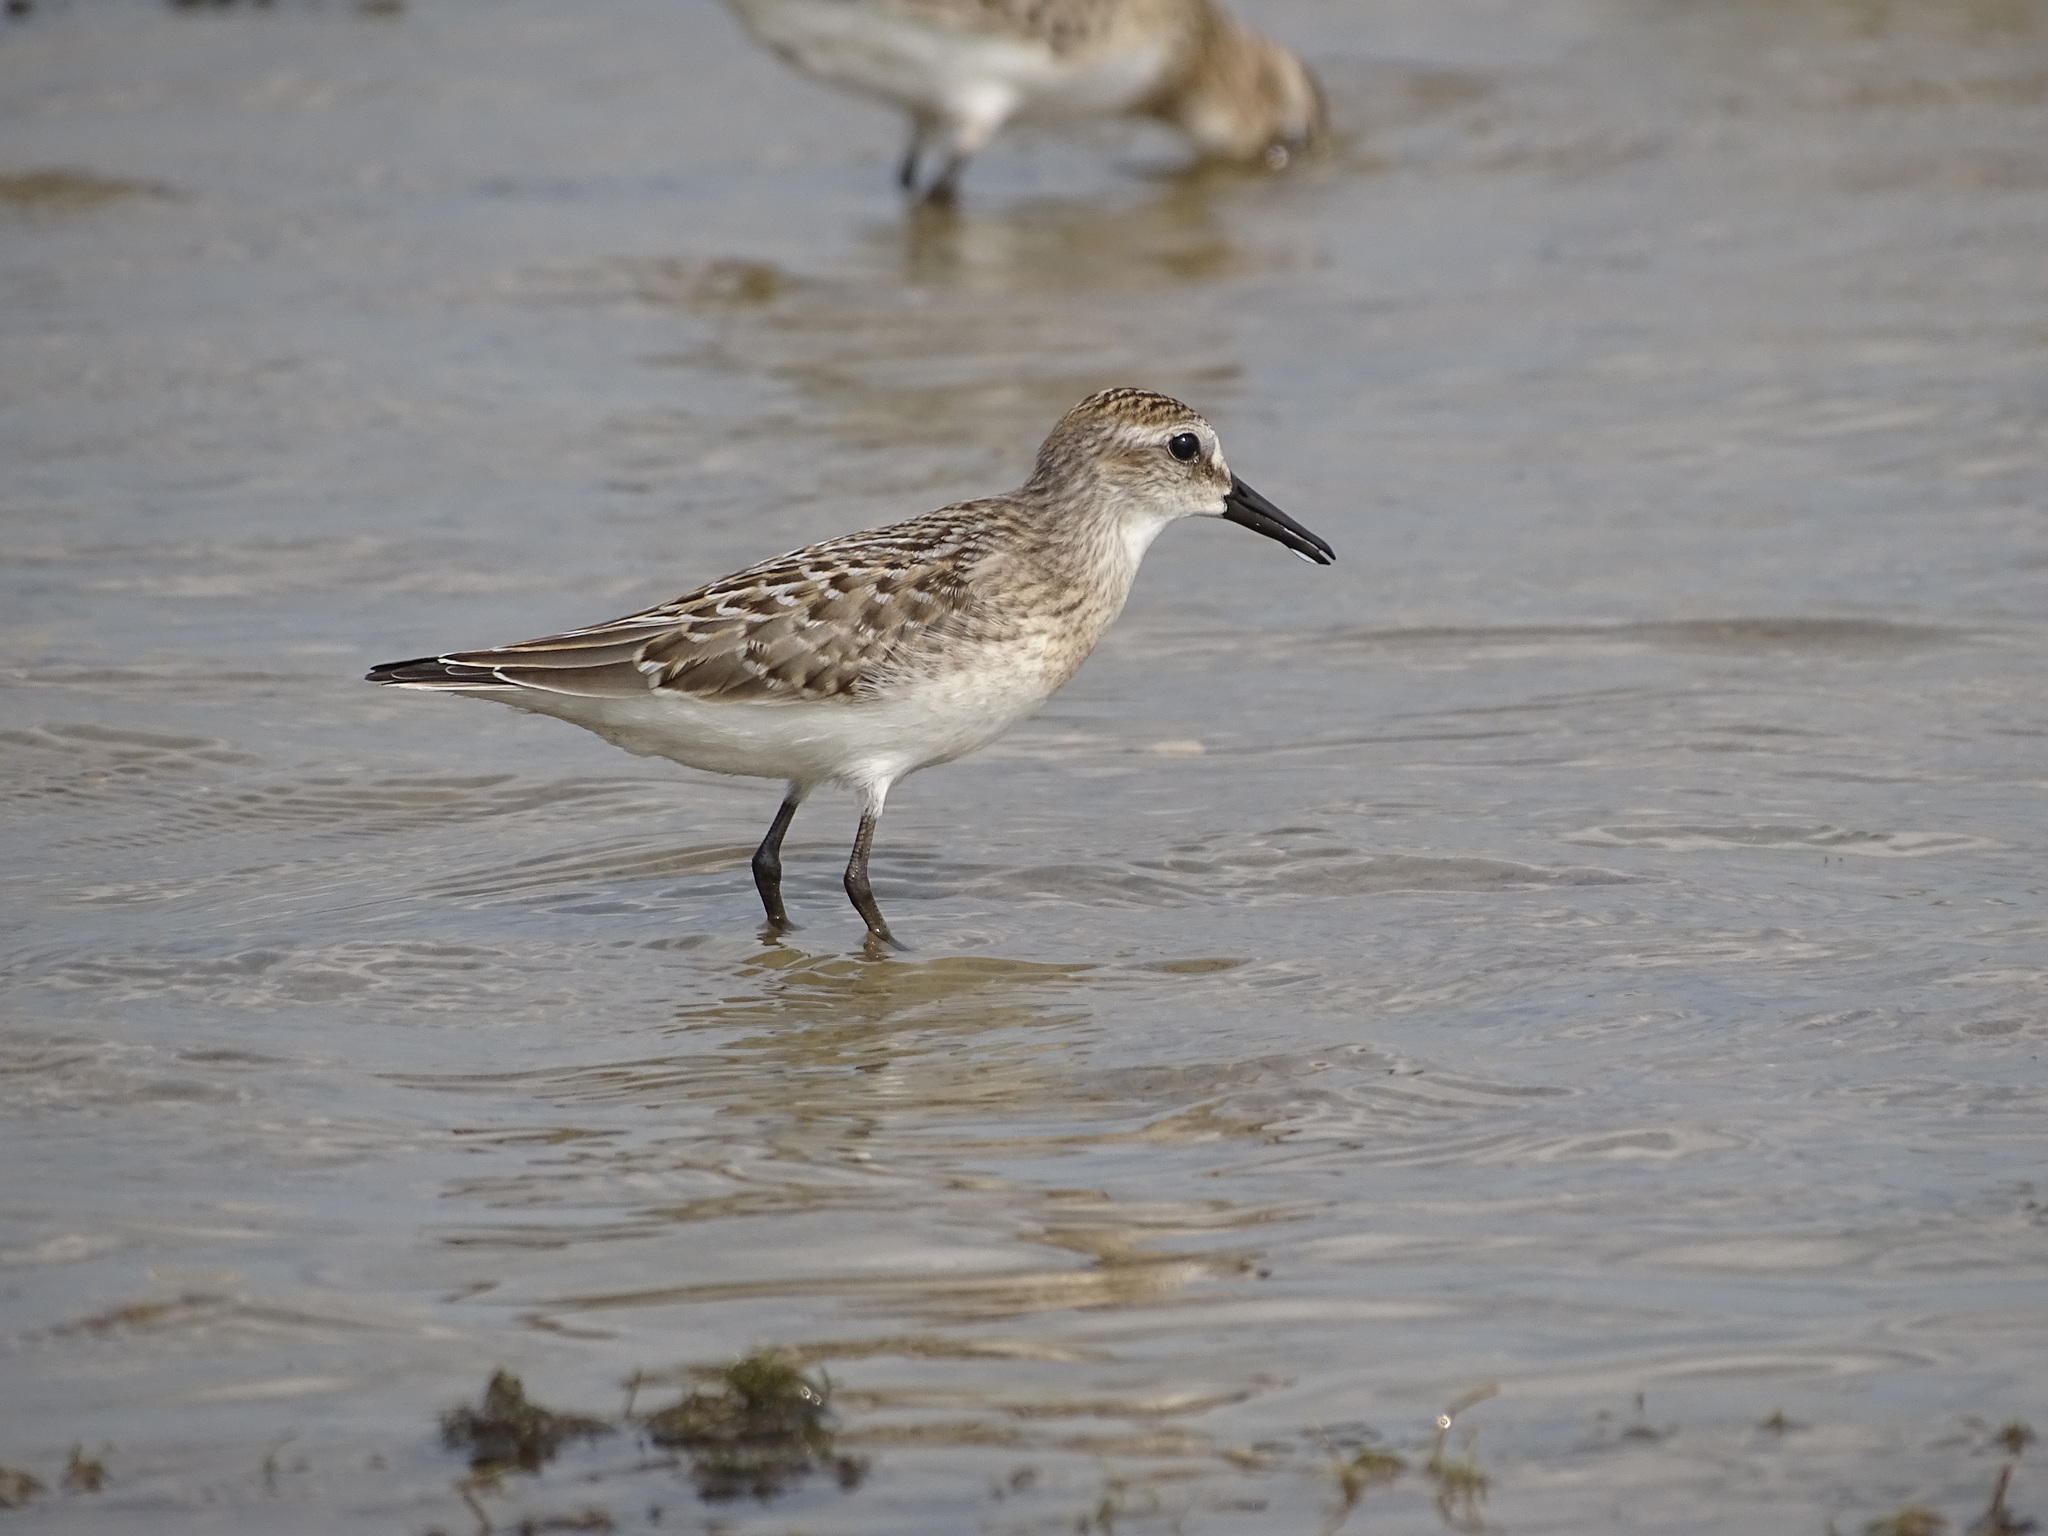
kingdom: Animalia
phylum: Chordata
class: Aves
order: Charadriiformes
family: Scolopacidae
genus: Calidris
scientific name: Calidris pusilla
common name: Semipalmated sandpiper
